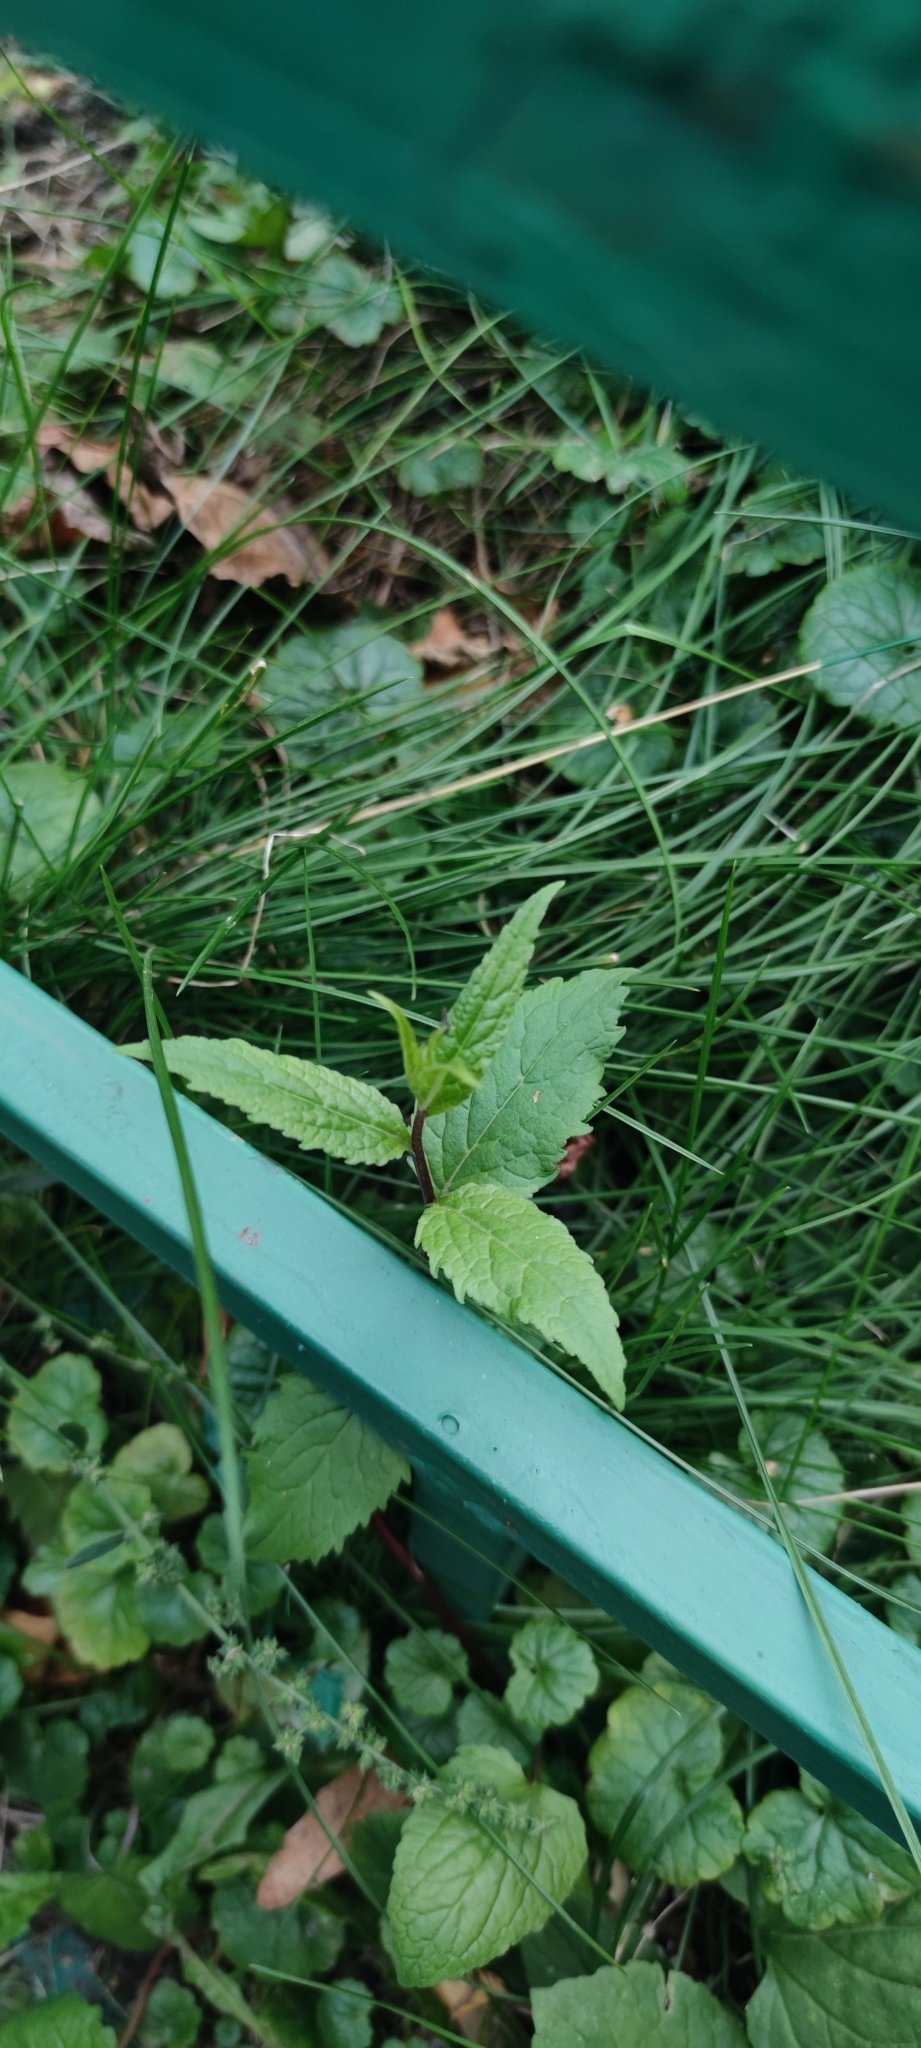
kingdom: Plantae
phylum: Tracheophyta
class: Magnoliopsida
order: Asterales
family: Campanulaceae
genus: Campanula
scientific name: Campanula rapunculoides
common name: Creeping bellflower
